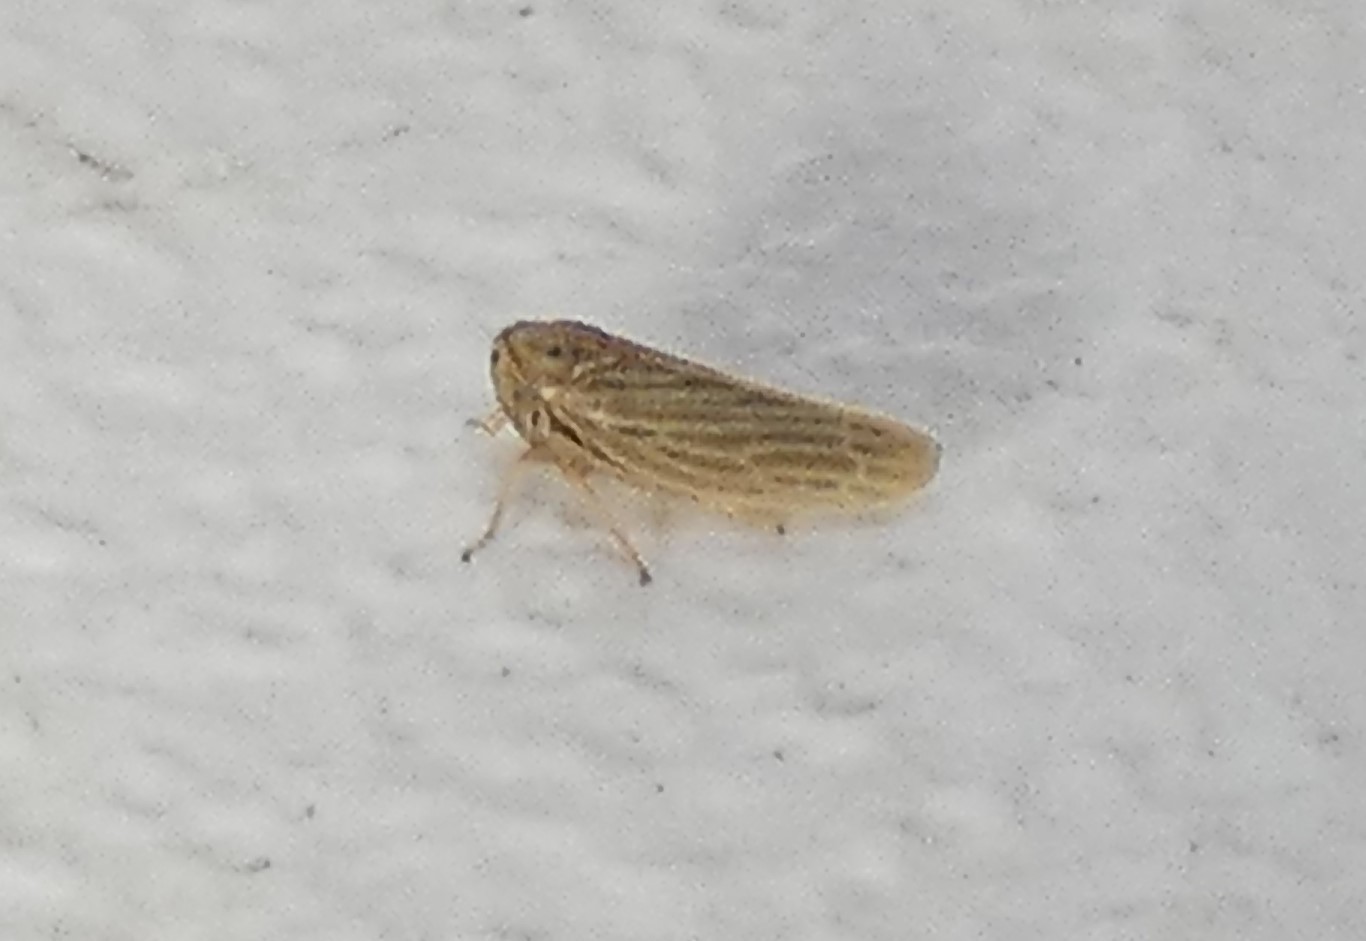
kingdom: Animalia
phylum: Arthropoda
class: Insecta
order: Hemiptera
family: Cicadellidae
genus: Agallia
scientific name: Agallia constricta
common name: The constricted leafhopper
